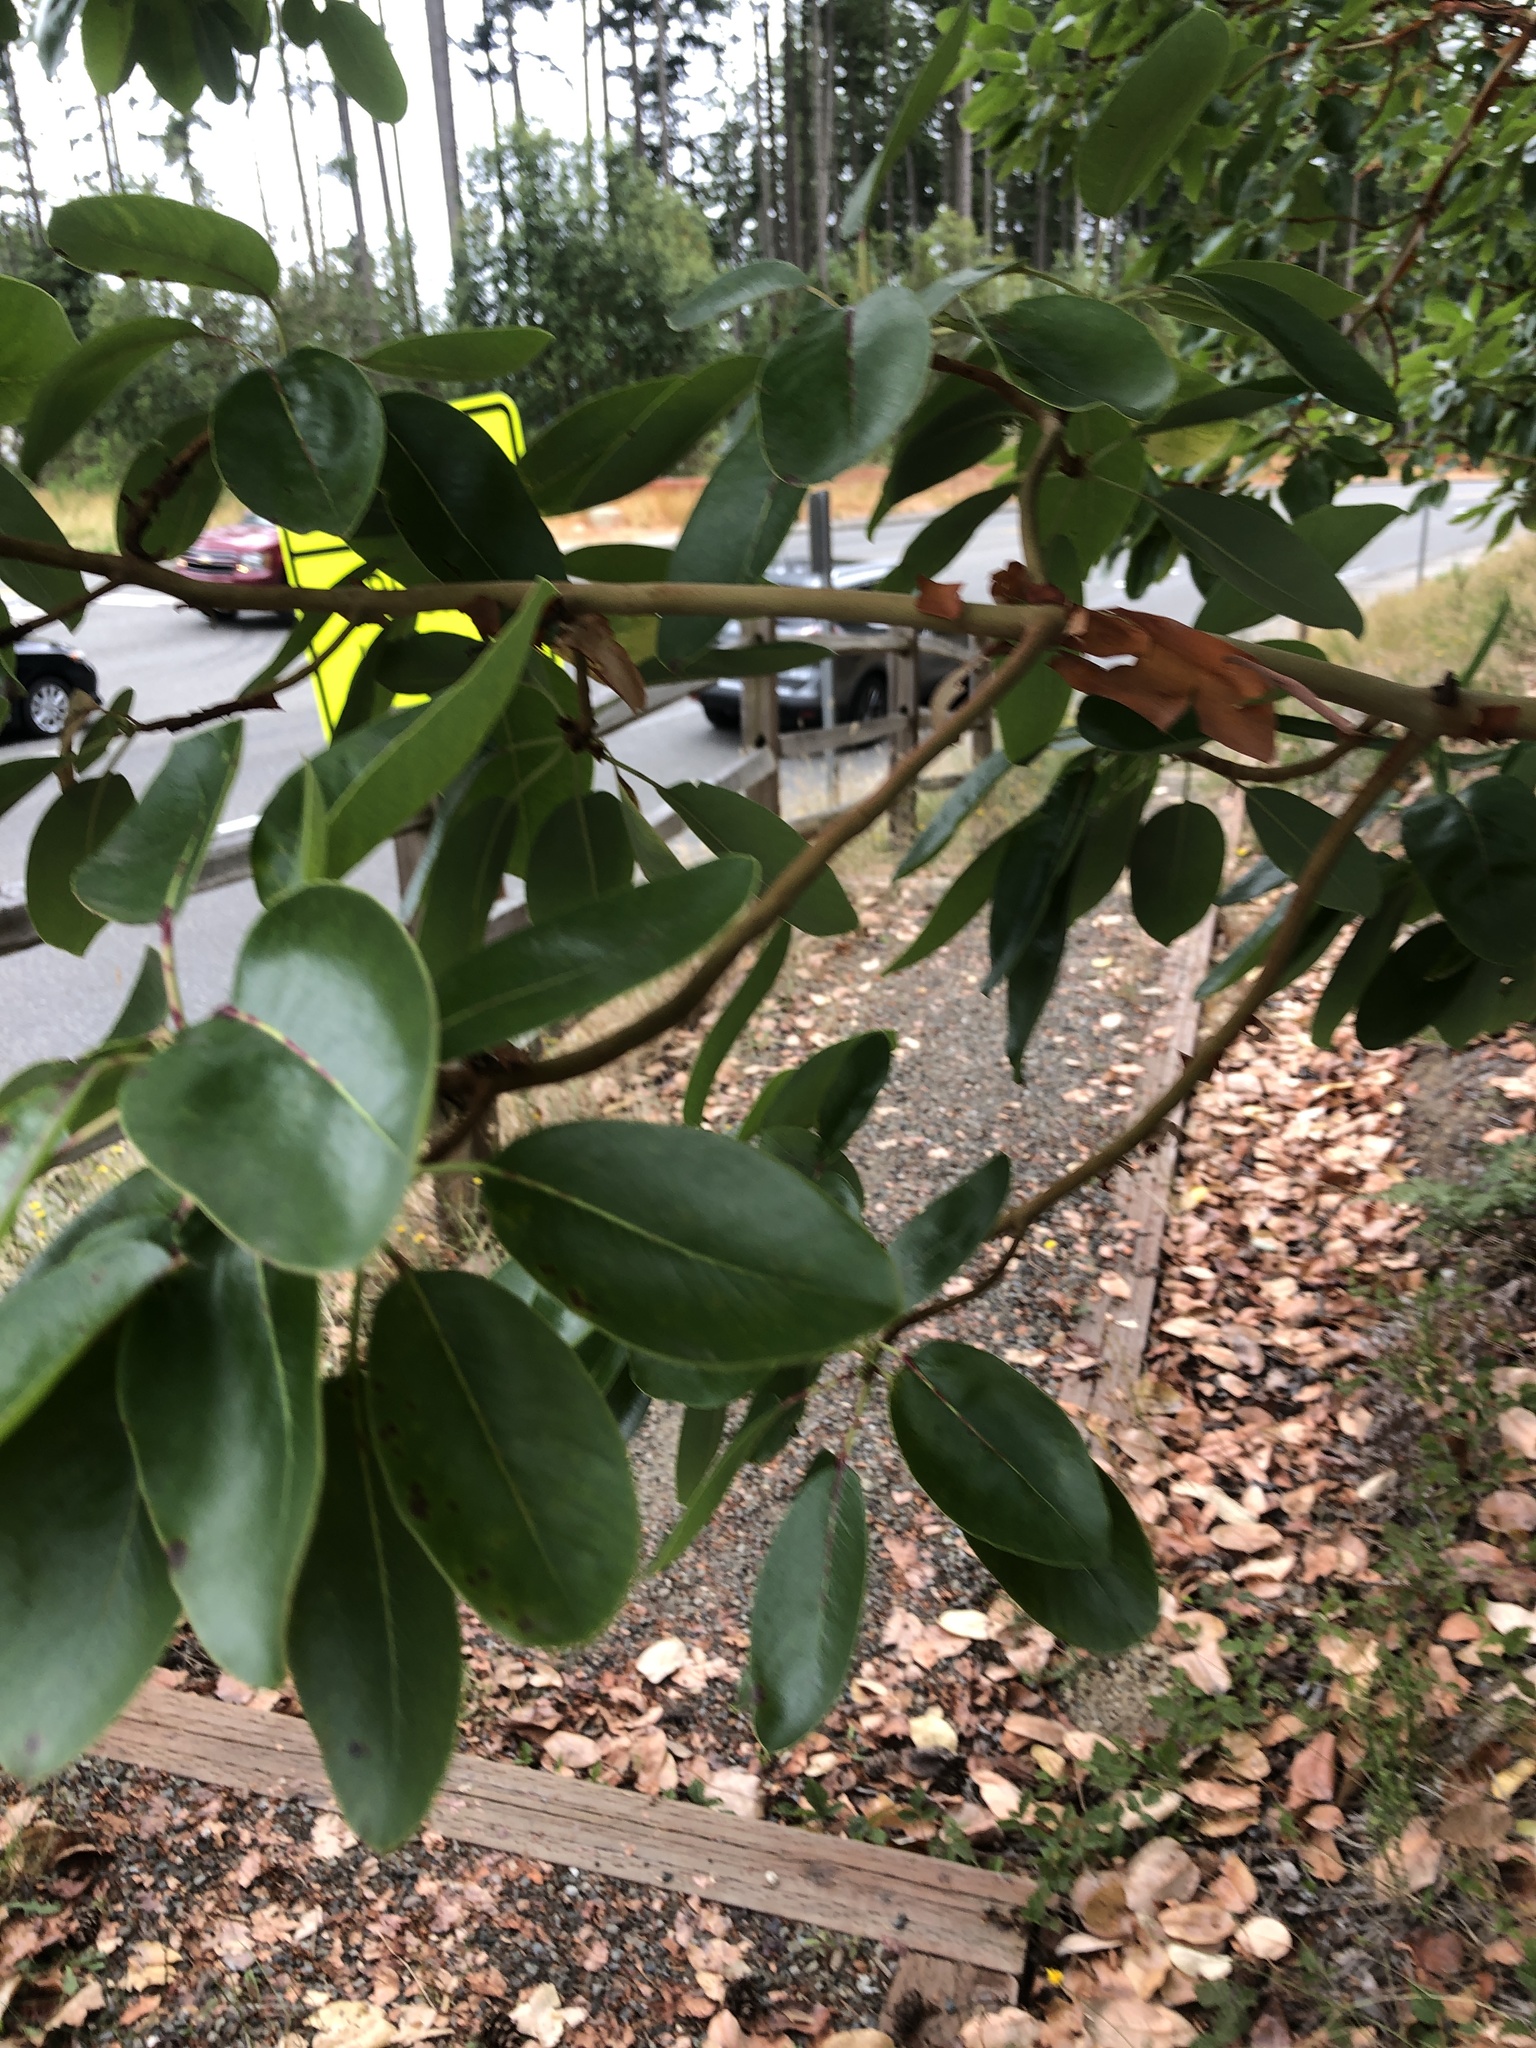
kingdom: Plantae
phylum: Tracheophyta
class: Magnoliopsida
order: Ericales
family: Ericaceae
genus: Arbutus
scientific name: Arbutus menziesii
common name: Pacific madrone
